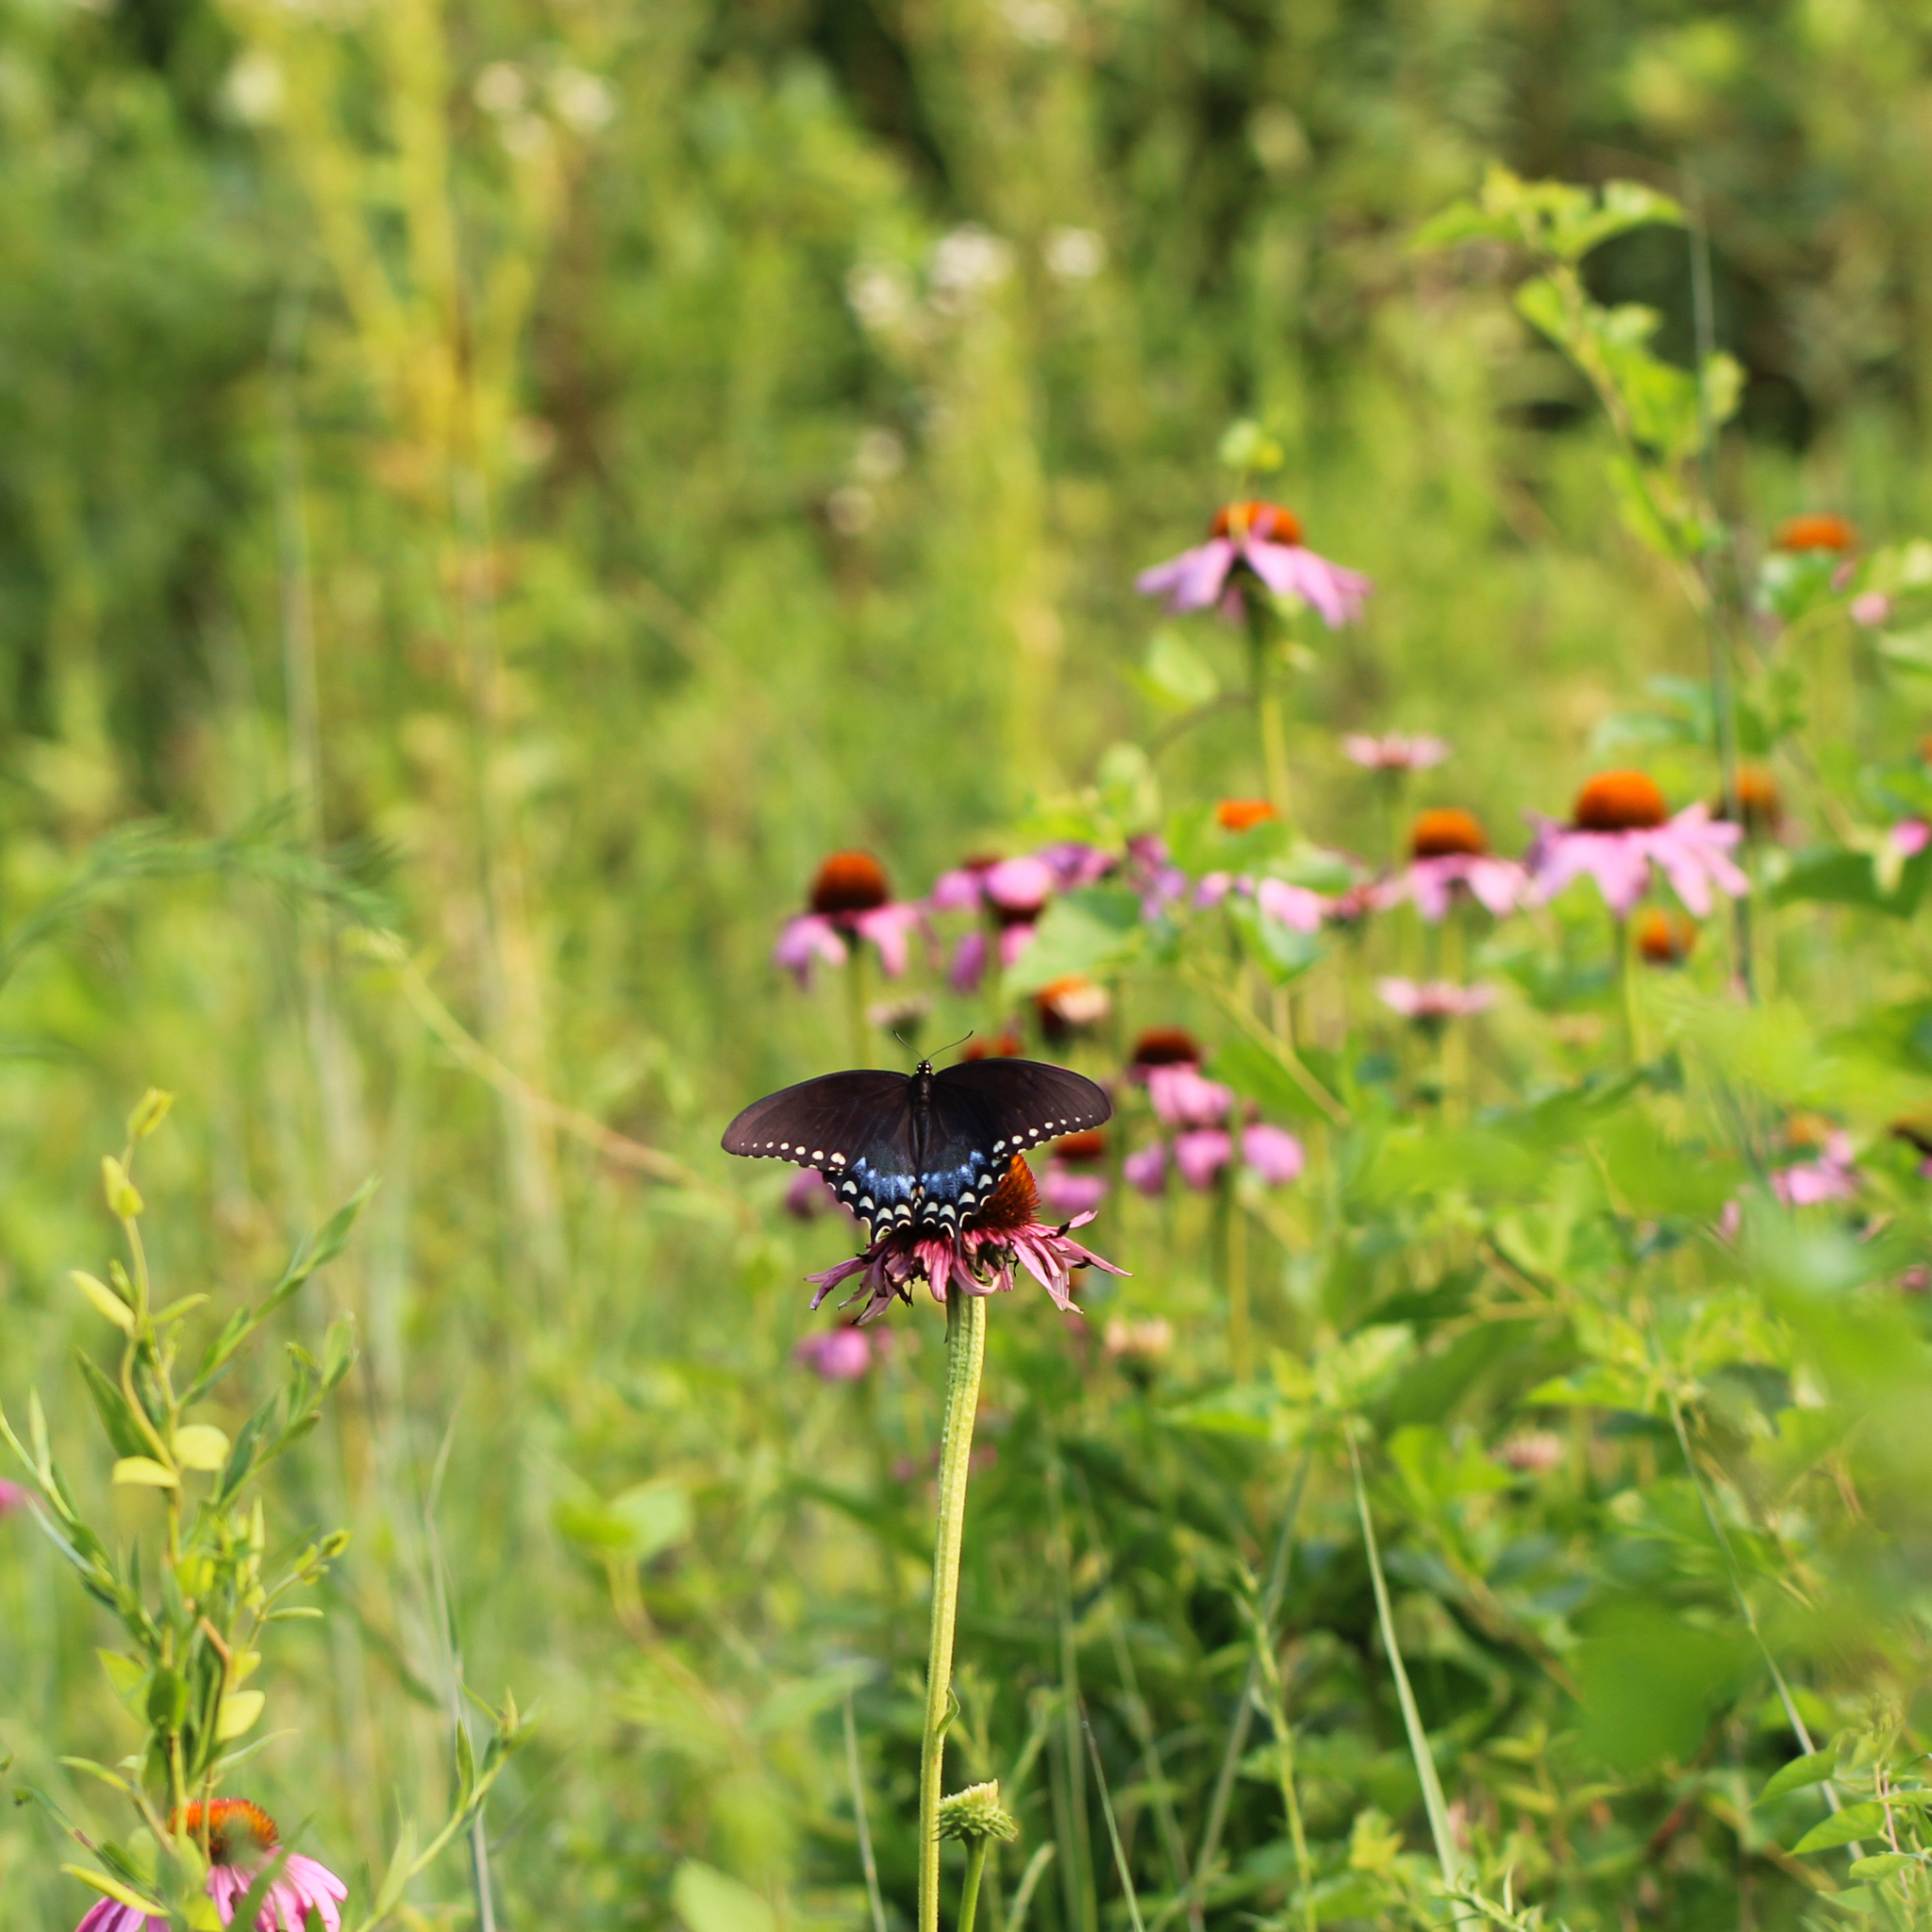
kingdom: Animalia
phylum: Arthropoda
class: Insecta
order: Lepidoptera
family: Papilionidae
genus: Papilio
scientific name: Papilio troilus
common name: Spicebush swallowtail
